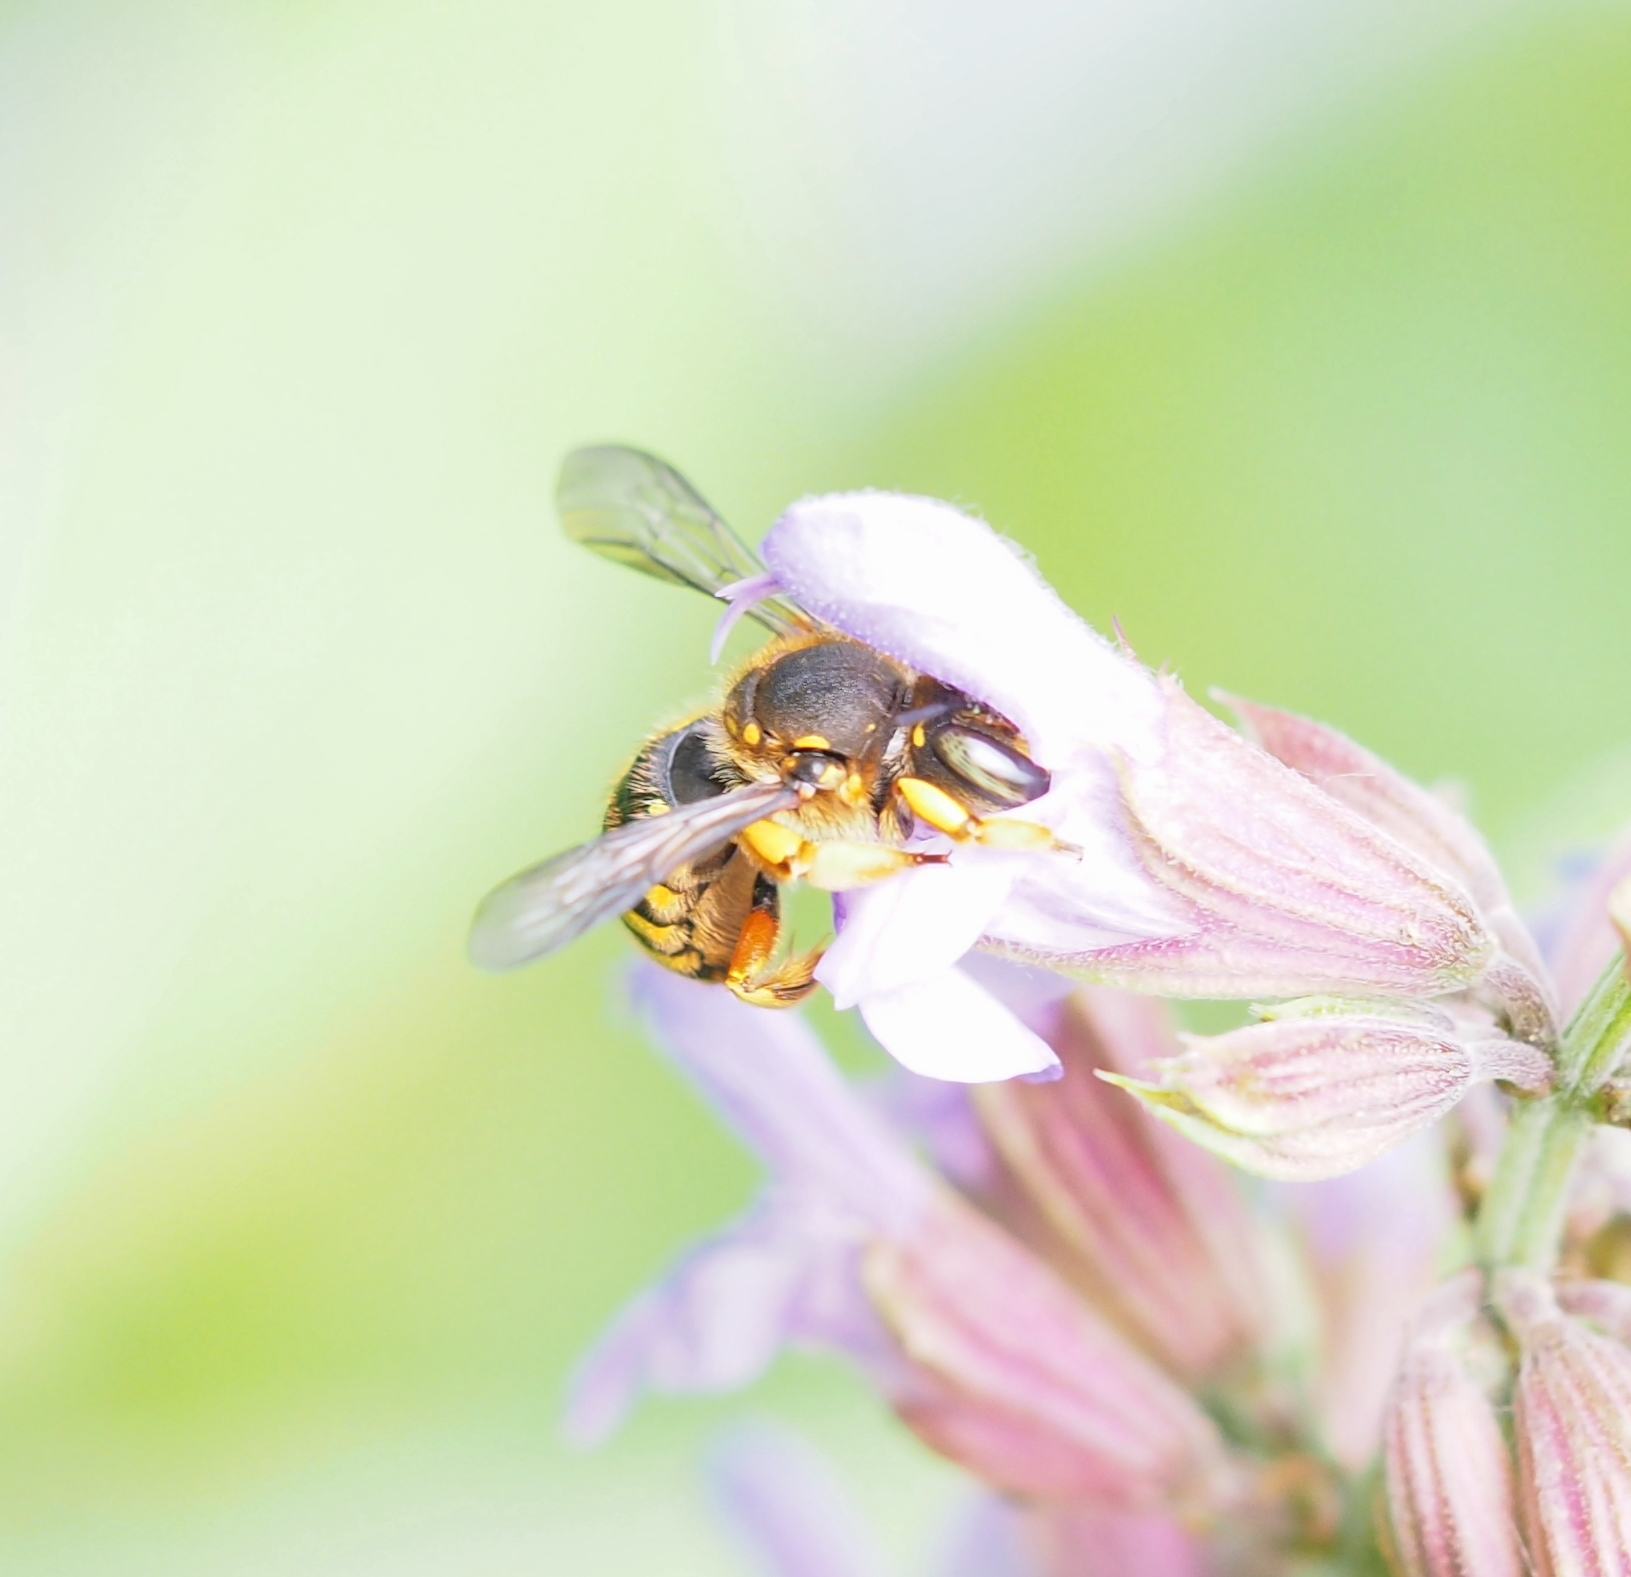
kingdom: Animalia
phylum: Arthropoda
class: Insecta
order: Hymenoptera
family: Megachilidae
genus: Anthidium
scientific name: Anthidium manicatum
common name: Wool carder bee
